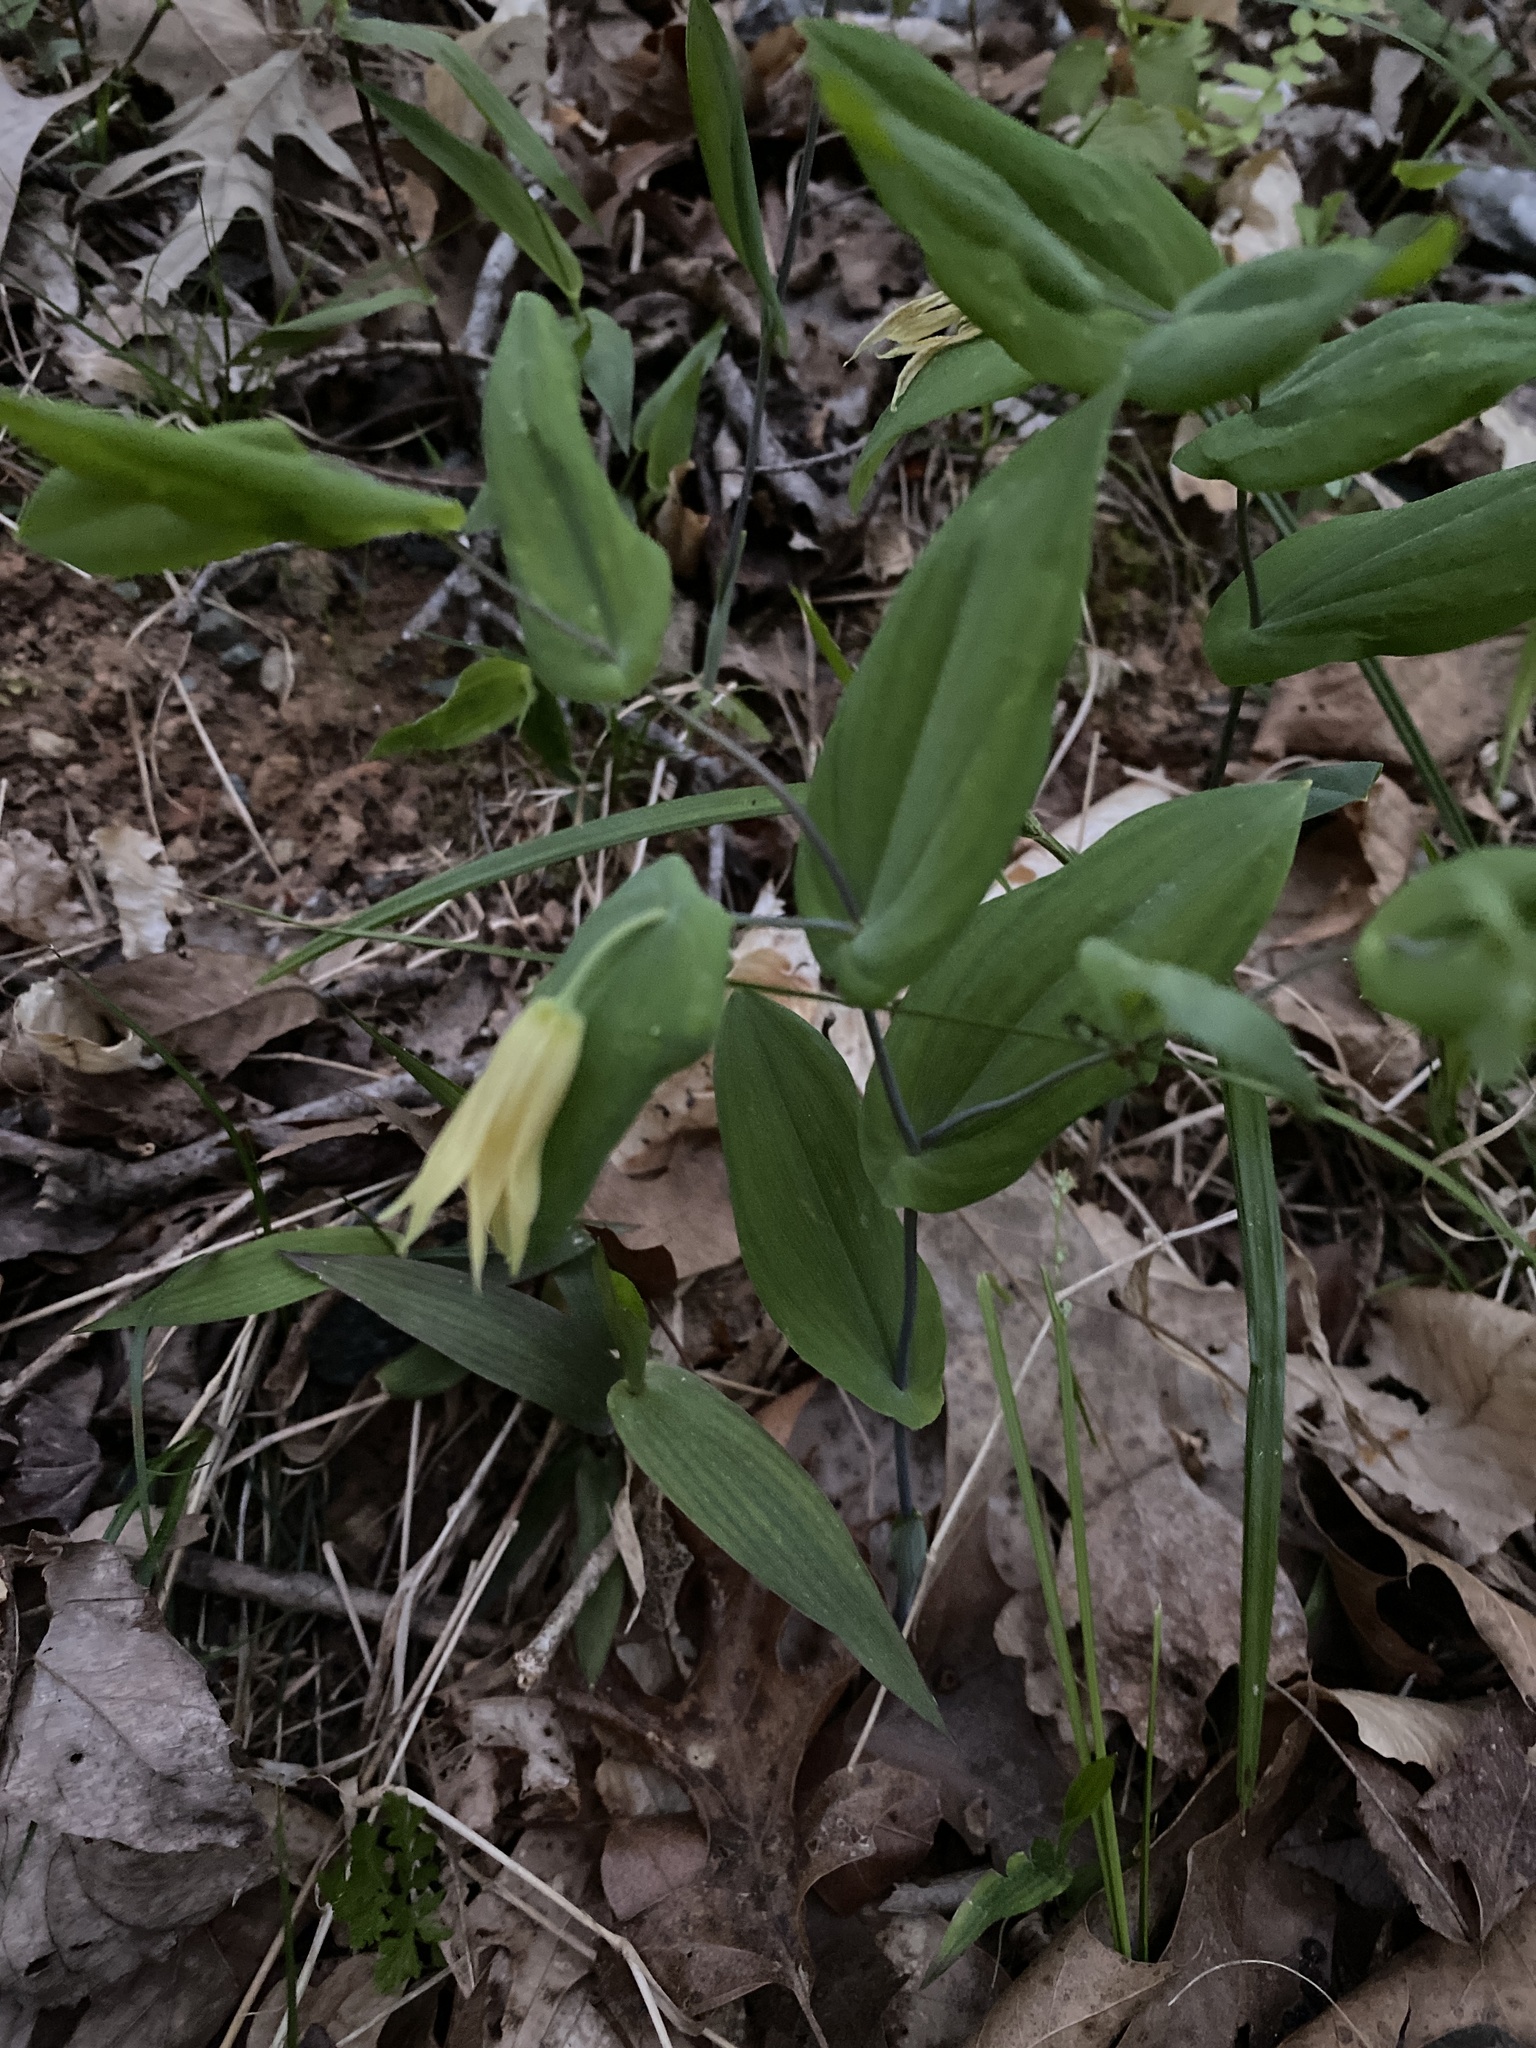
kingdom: Plantae
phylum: Tracheophyta
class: Liliopsida
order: Liliales
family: Colchicaceae
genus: Uvularia
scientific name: Uvularia perfoliata
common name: Perfoliate bellwort
